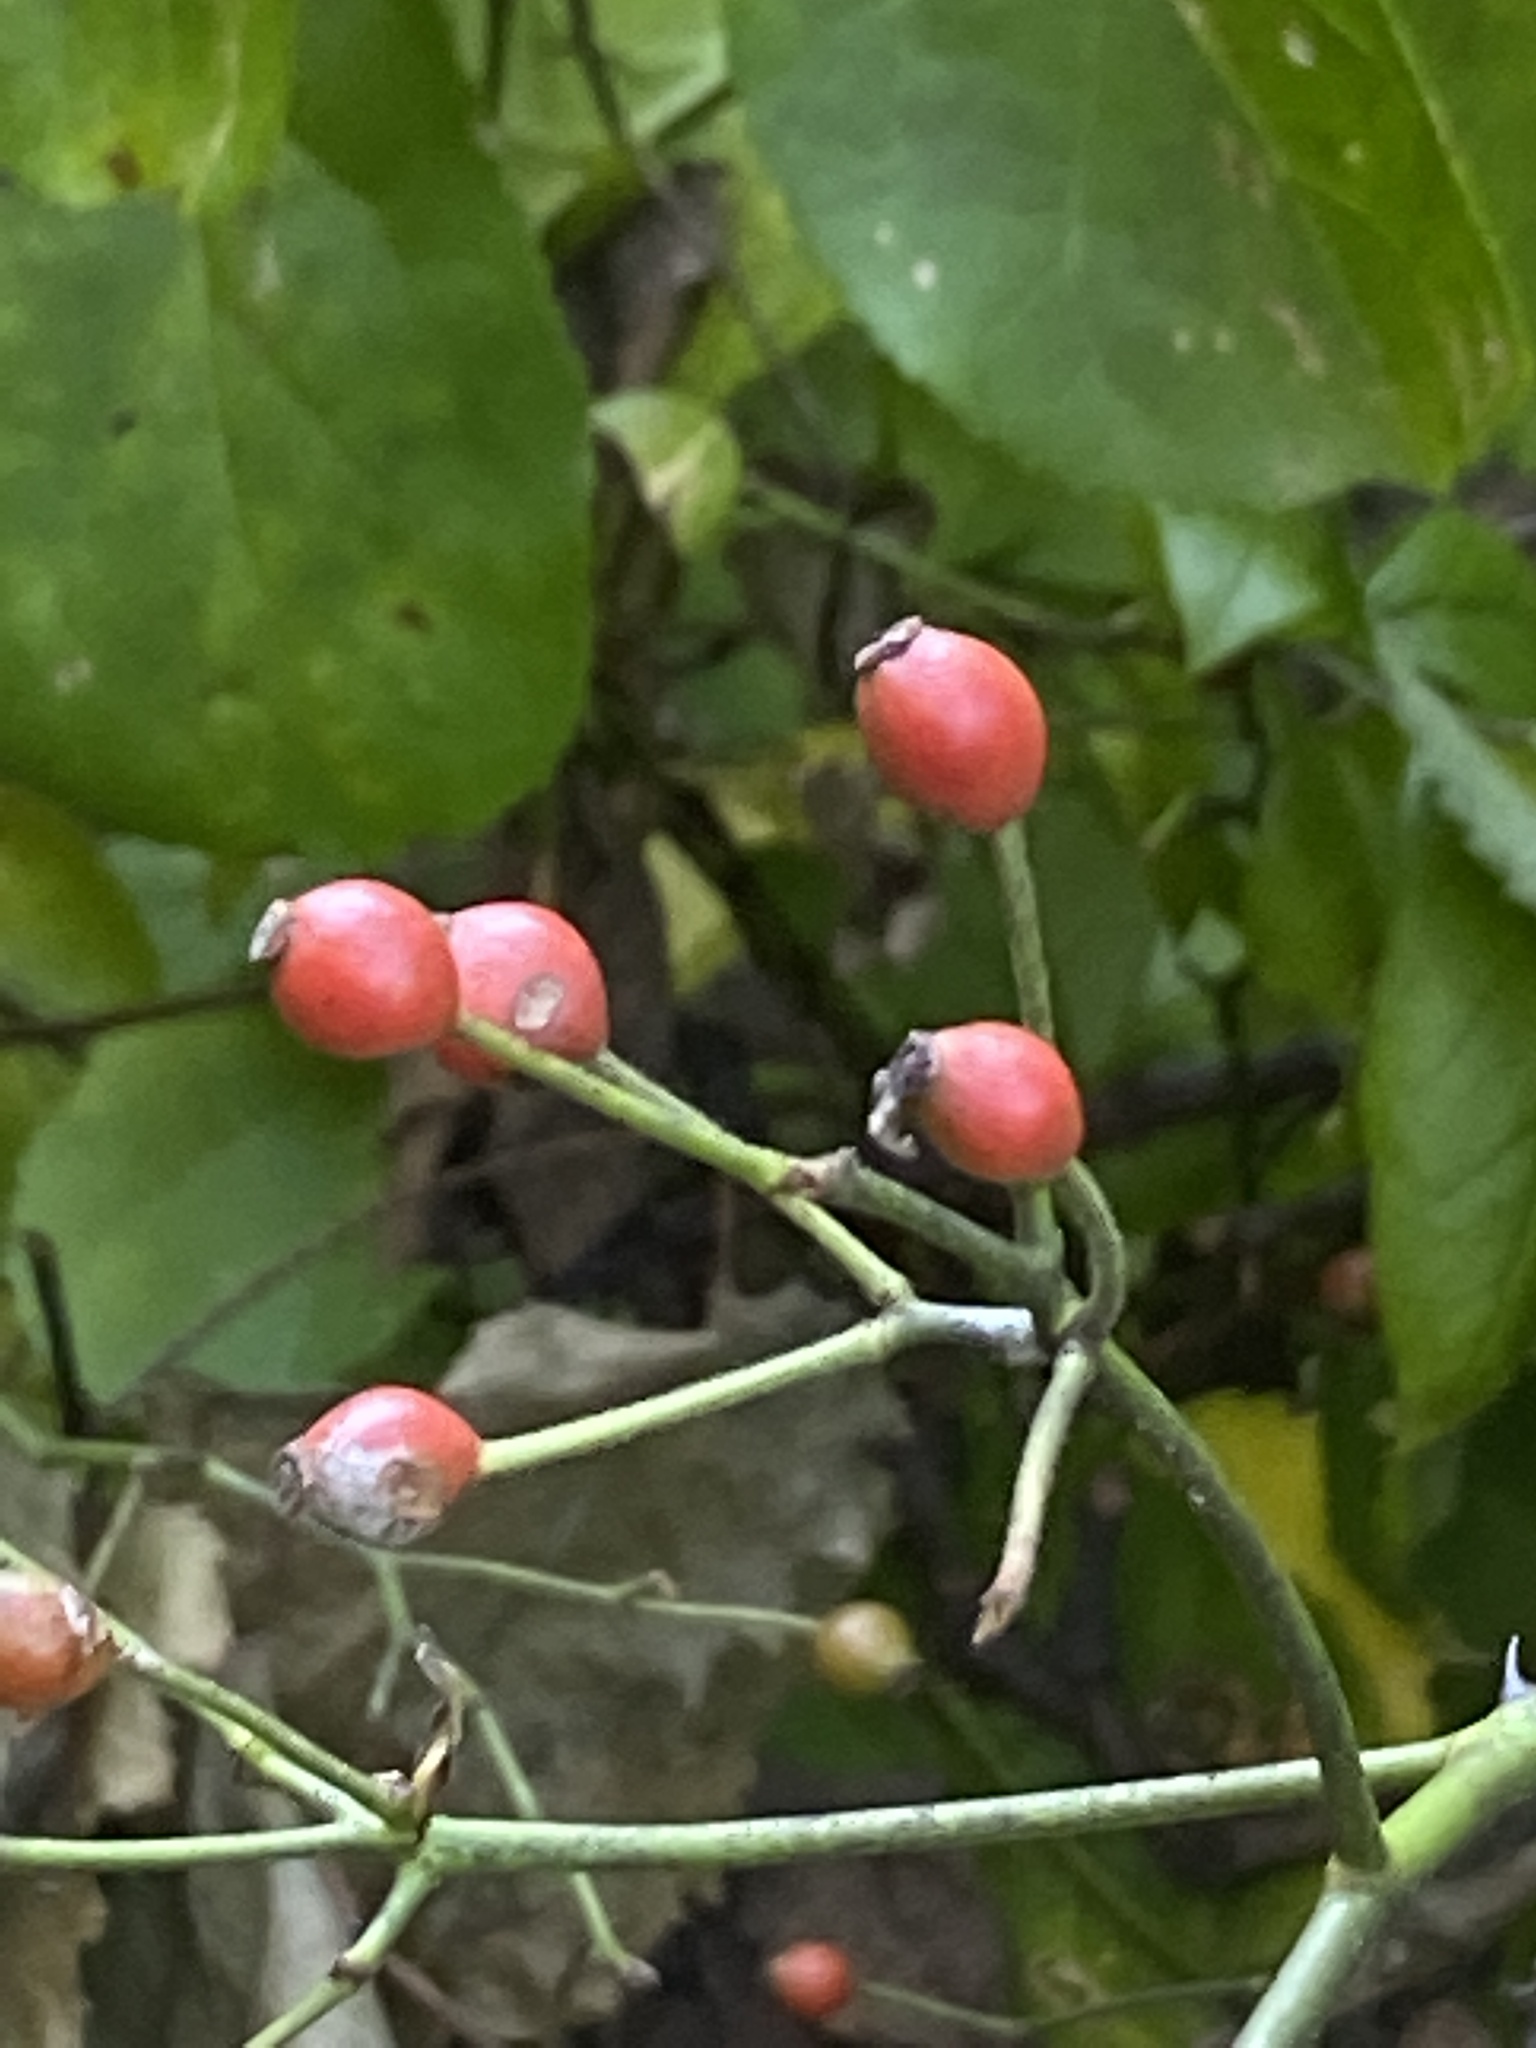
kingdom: Plantae
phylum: Tracheophyta
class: Magnoliopsida
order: Rosales
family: Rosaceae
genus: Rosa
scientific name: Rosa multiflora
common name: Multiflora rose
